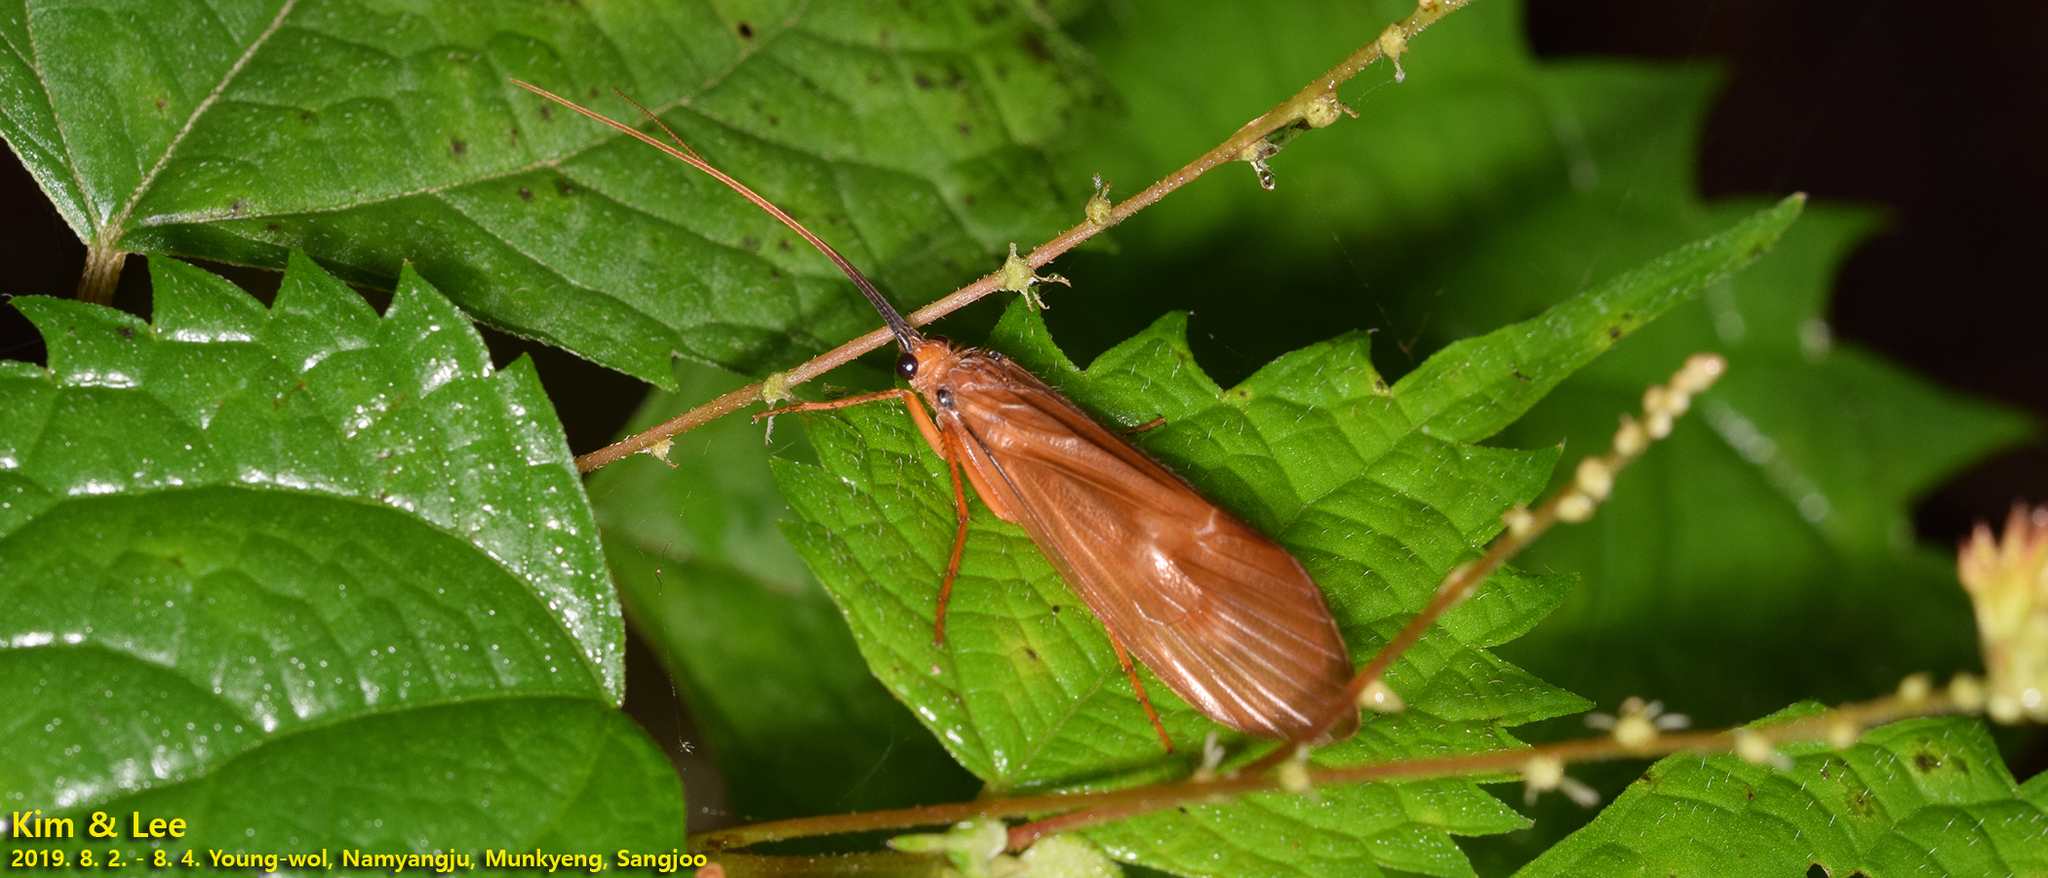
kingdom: Animalia
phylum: Arthropoda
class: Insecta
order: Trichoptera
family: Limnephilidae
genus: Hydatophylax
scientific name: Hydatophylax formosus
